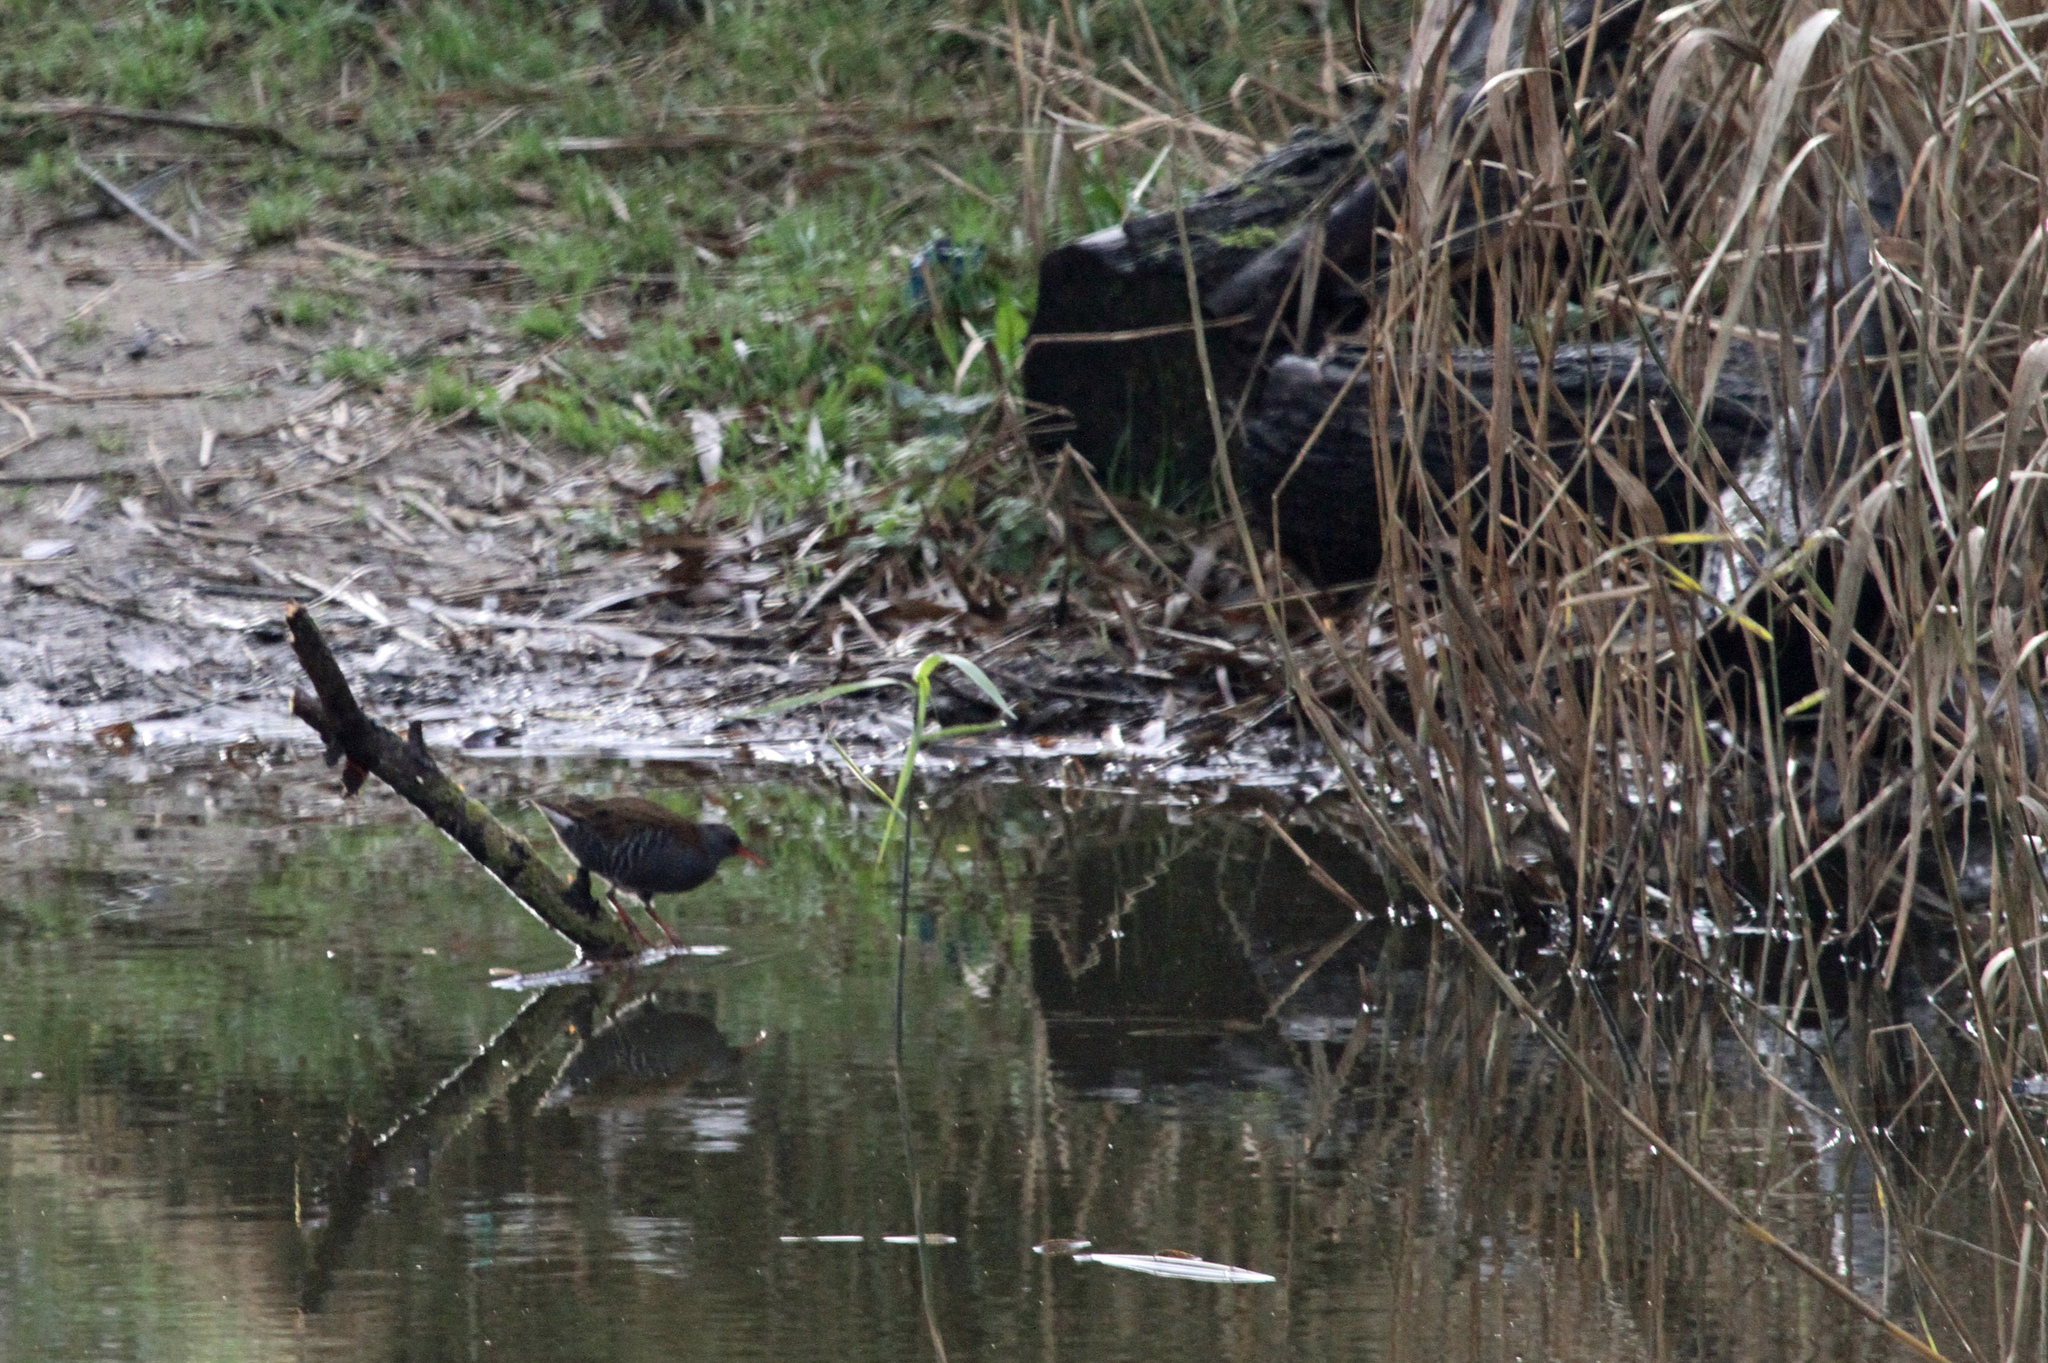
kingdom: Animalia
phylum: Chordata
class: Aves
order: Gruiformes
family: Rallidae
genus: Rallus
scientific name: Rallus aquaticus
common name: Water rail
